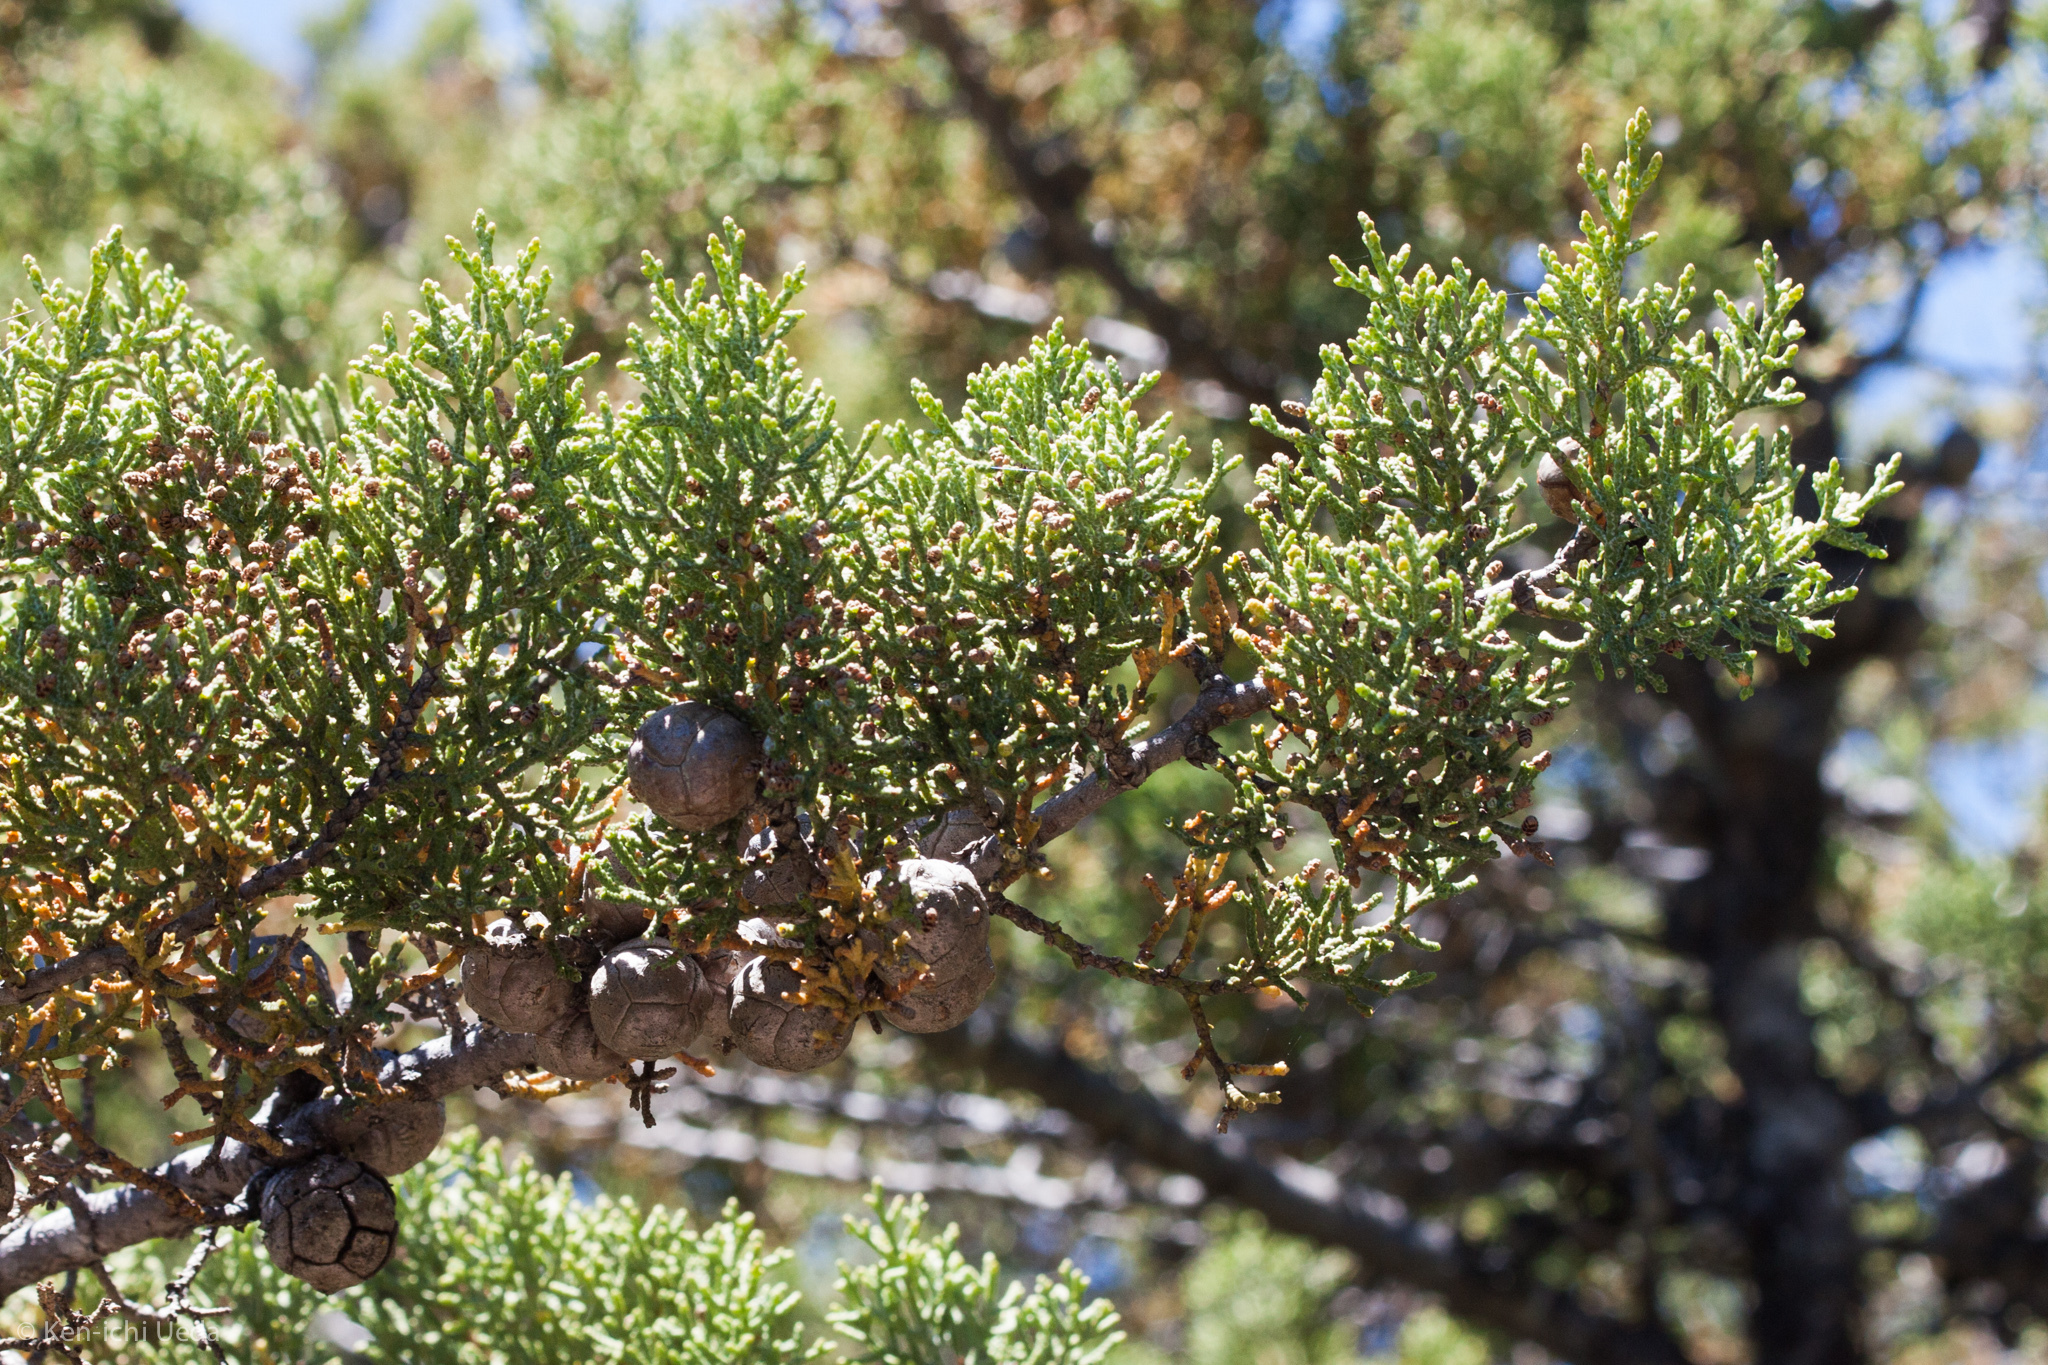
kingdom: Plantae
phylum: Tracheophyta
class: Pinopsida
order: Pinales
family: Cupressaceae
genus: Cupressus
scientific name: Cupressus sargentii
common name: Sargent cypress
